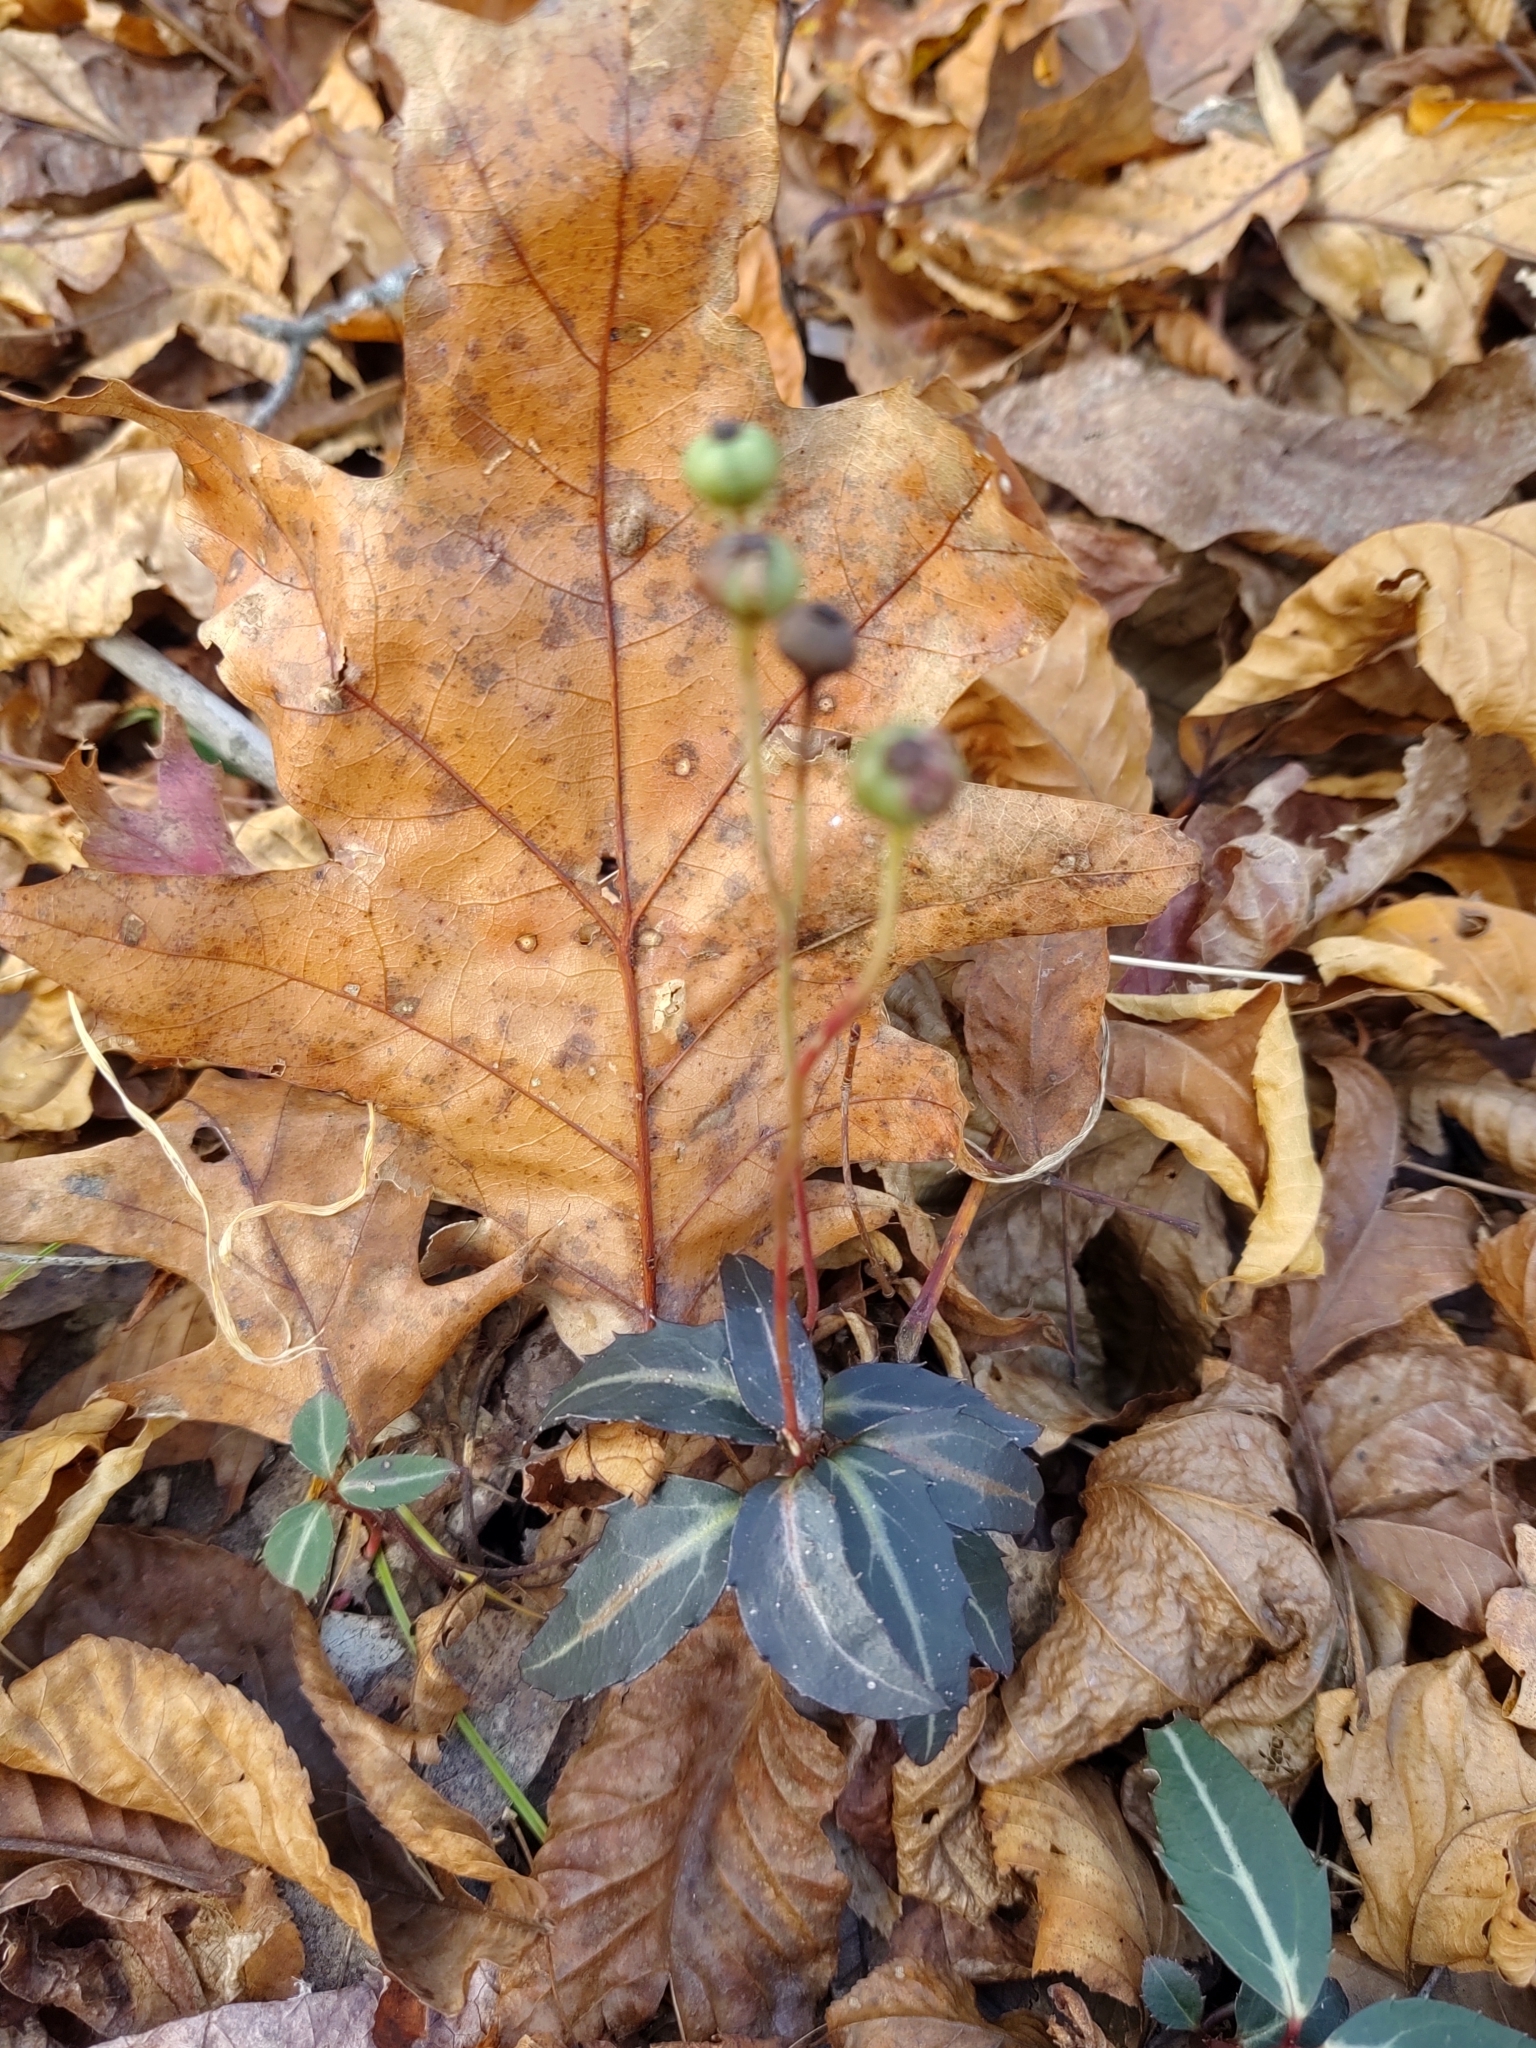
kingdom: Plantae
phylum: Tracheophyta
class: Magnoliopsida
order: Ericales
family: Ericaceae
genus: Chimaphila
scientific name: Chimaphila maculata
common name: Spotted pipsissewa
